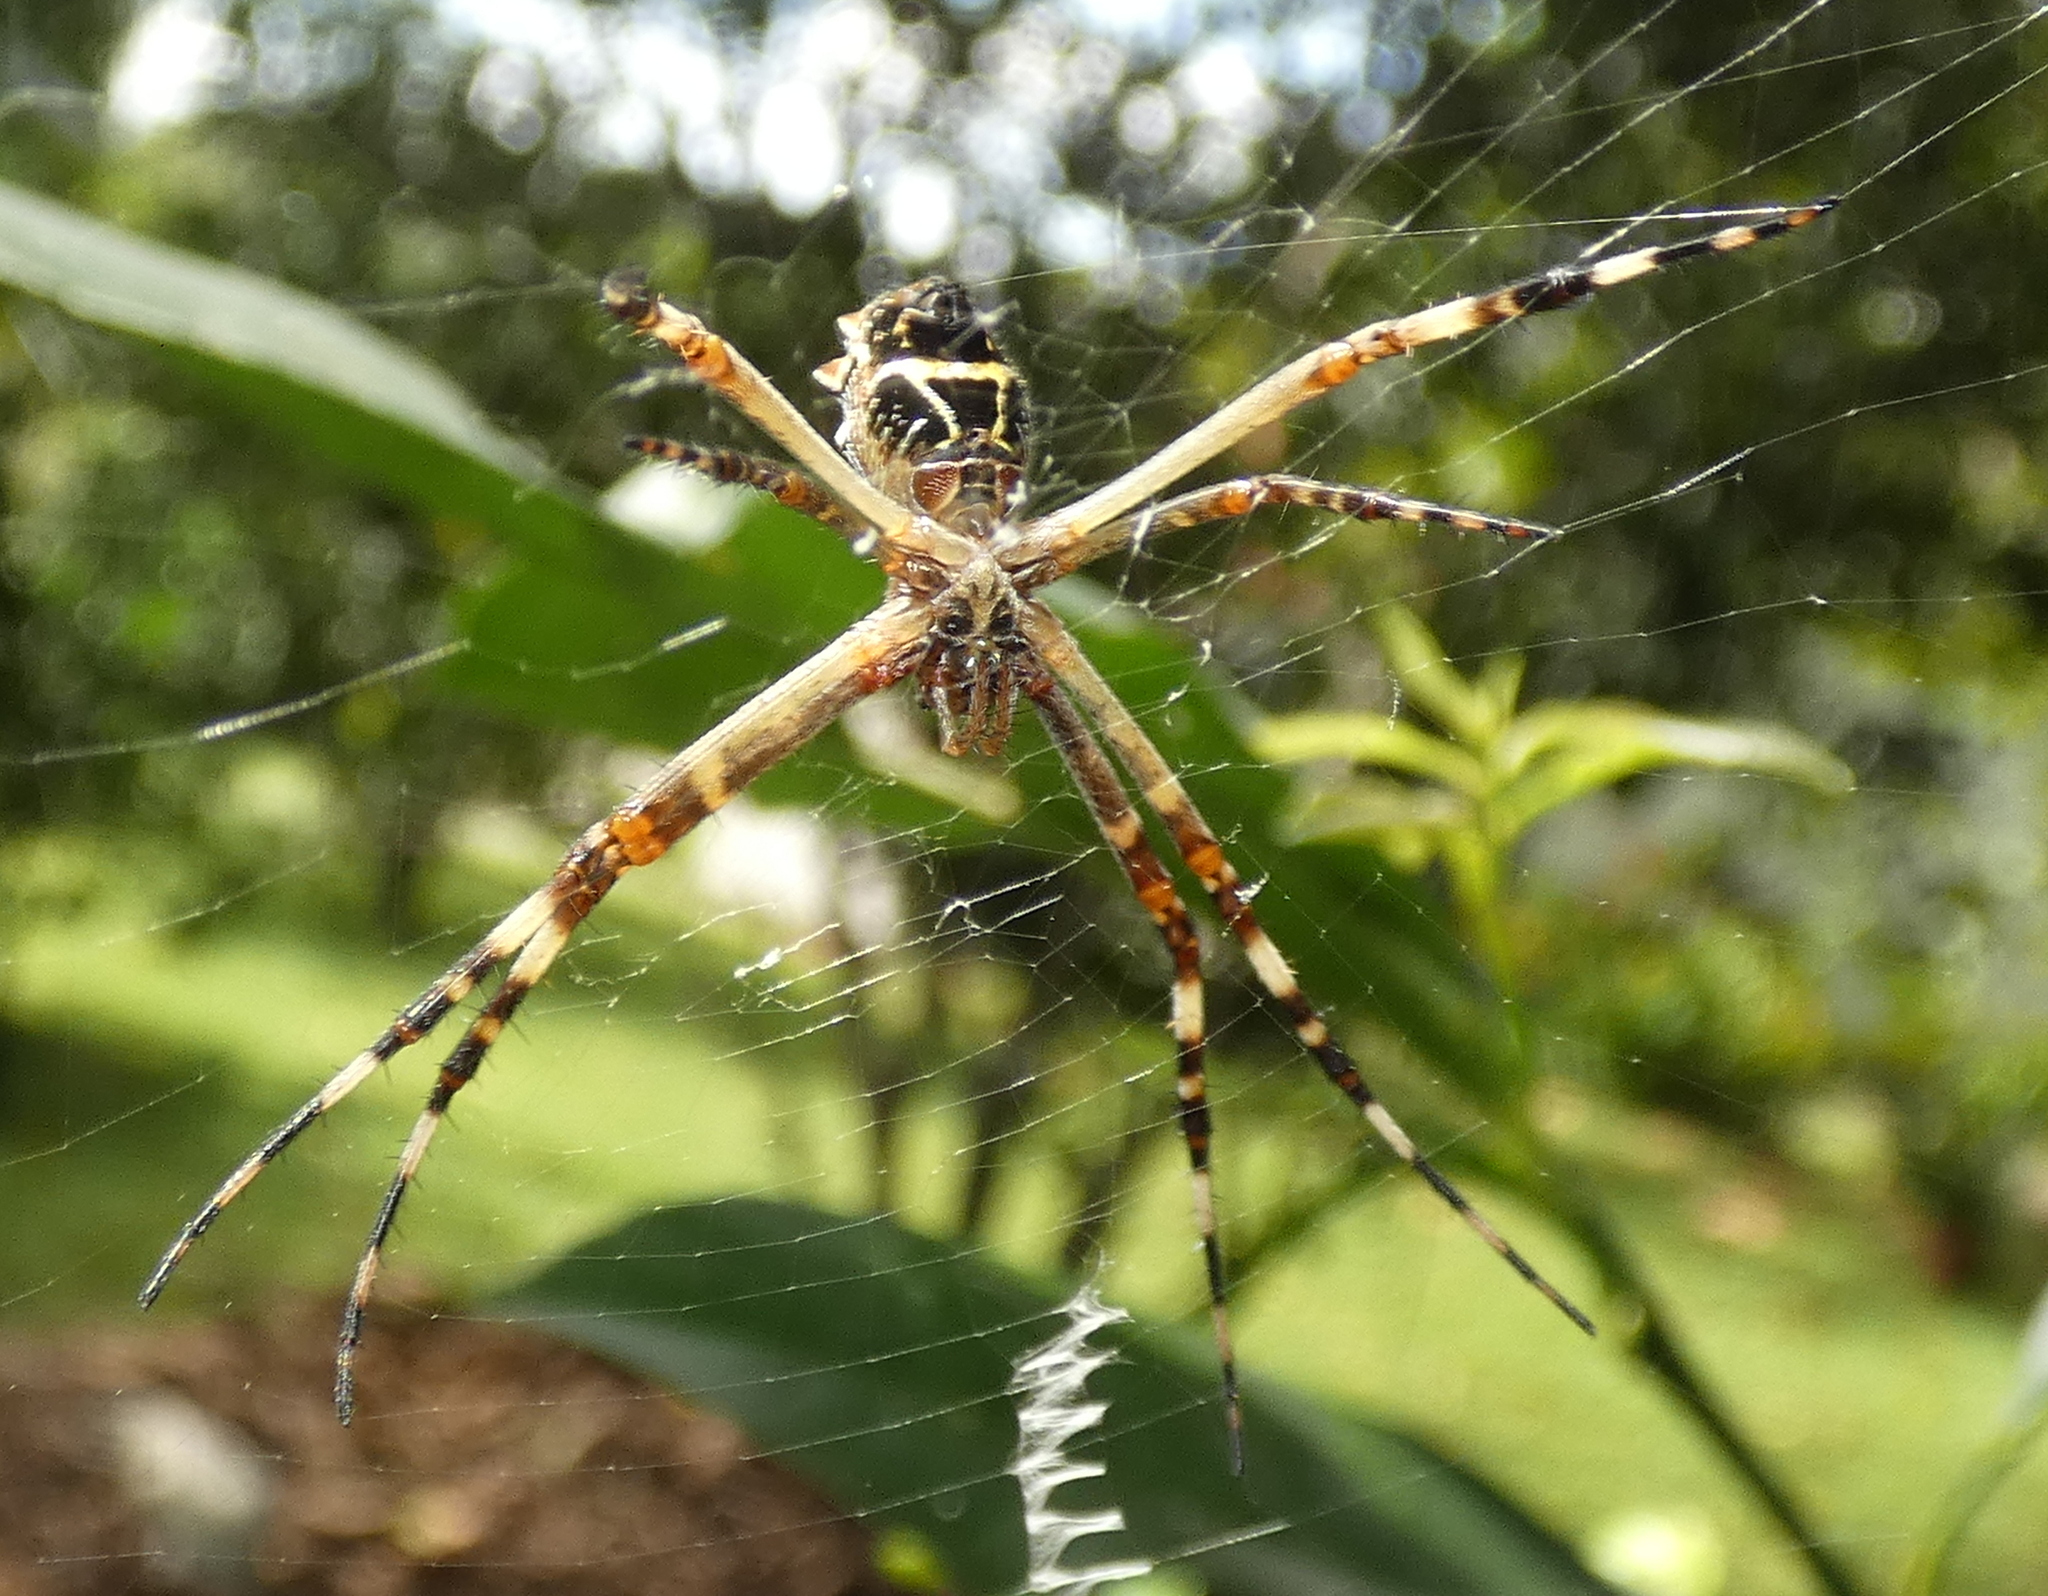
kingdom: Animalia
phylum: Arthropoda
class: Arachnida
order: Araneae
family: Araneidae
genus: Argiope
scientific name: Argiope argentata
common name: Orb weavers
